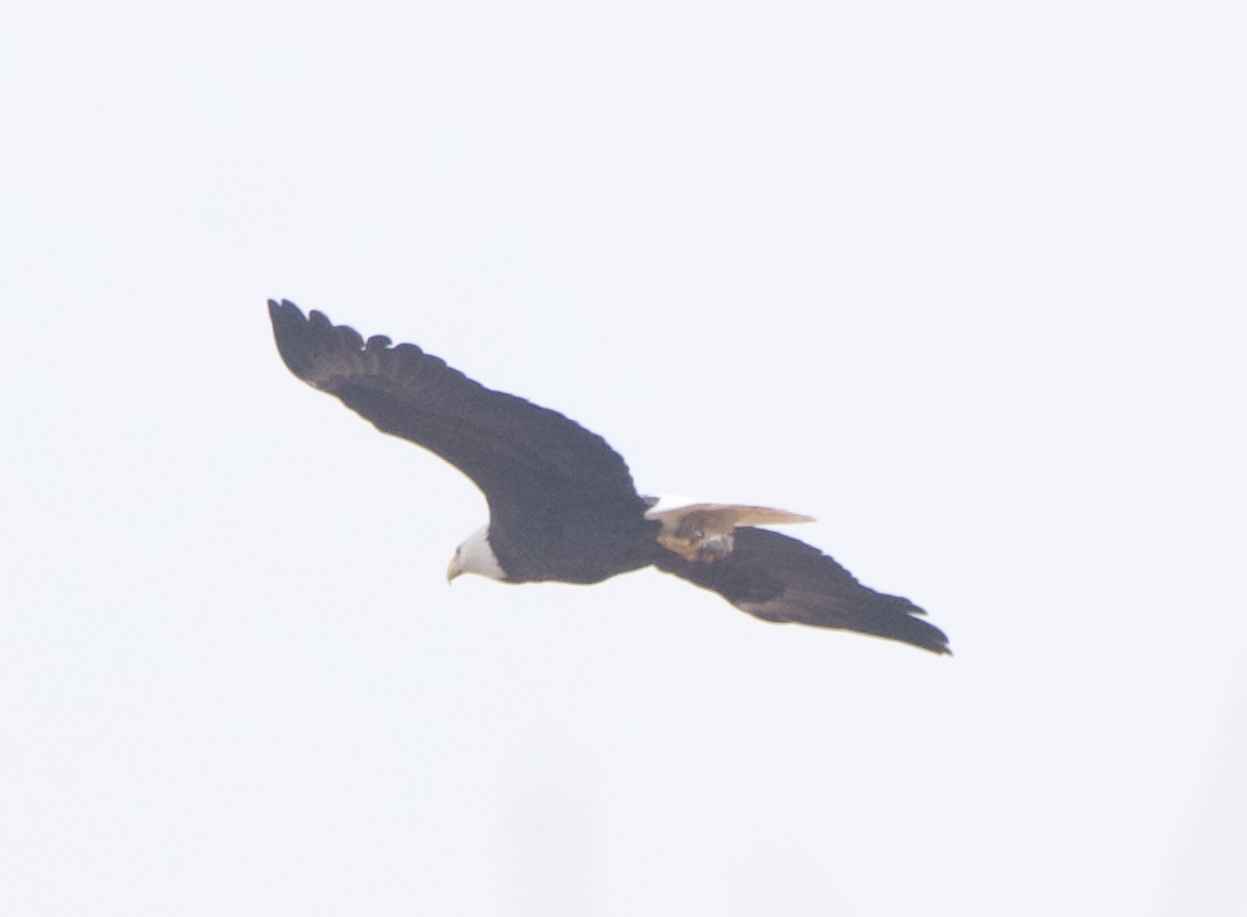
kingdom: Animalia
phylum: Chordata
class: Aves
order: Accipitriformes
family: Accipitridae
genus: Haliaeetus
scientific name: Haliaeetus leucocephalus
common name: Bald eagle
